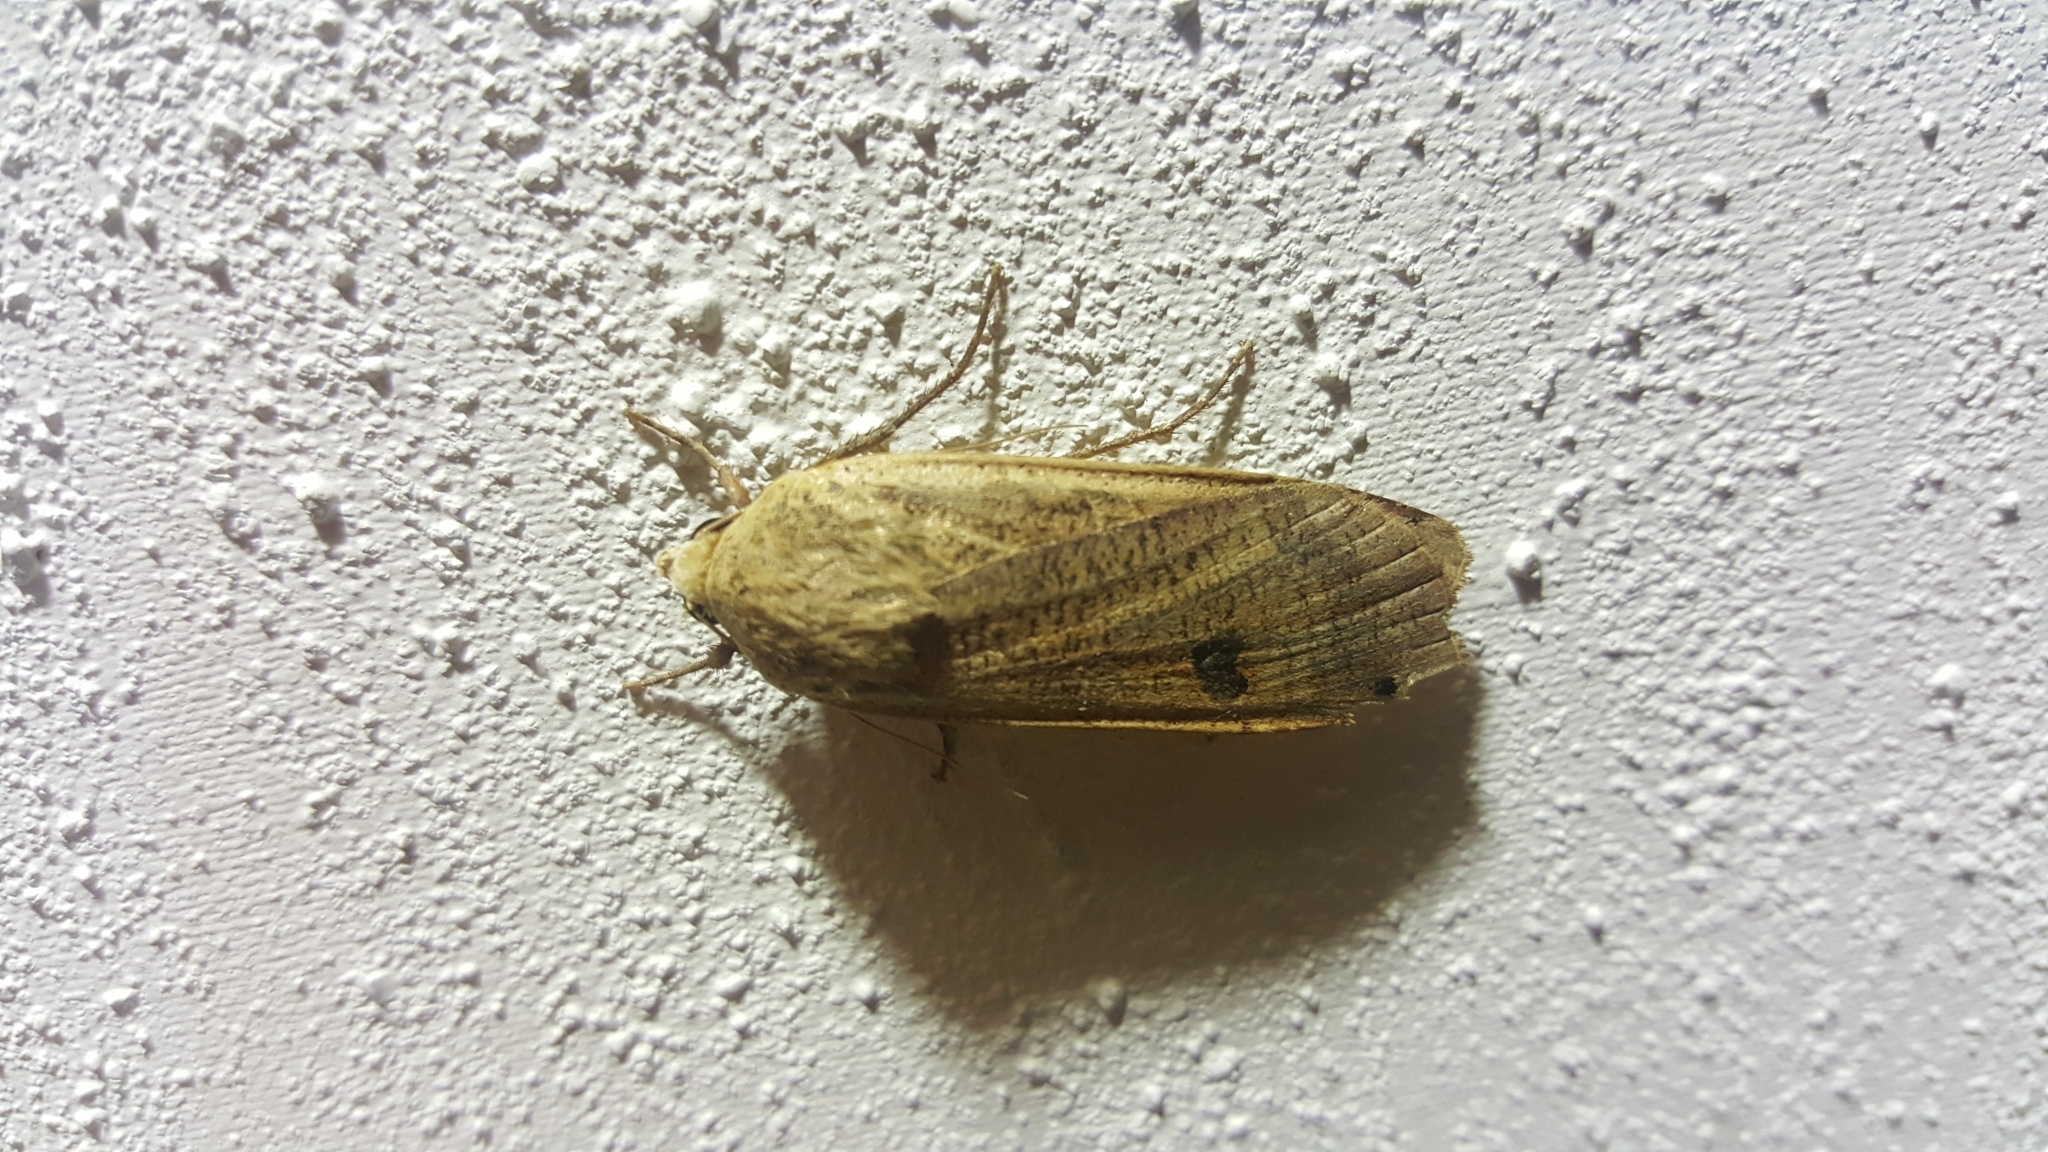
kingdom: Animalia
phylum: Arthropoda
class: Insecta
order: Lepidoptera
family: Noctuidae
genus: Noctua
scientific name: Noctua pronuba
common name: Large yellow underwing
